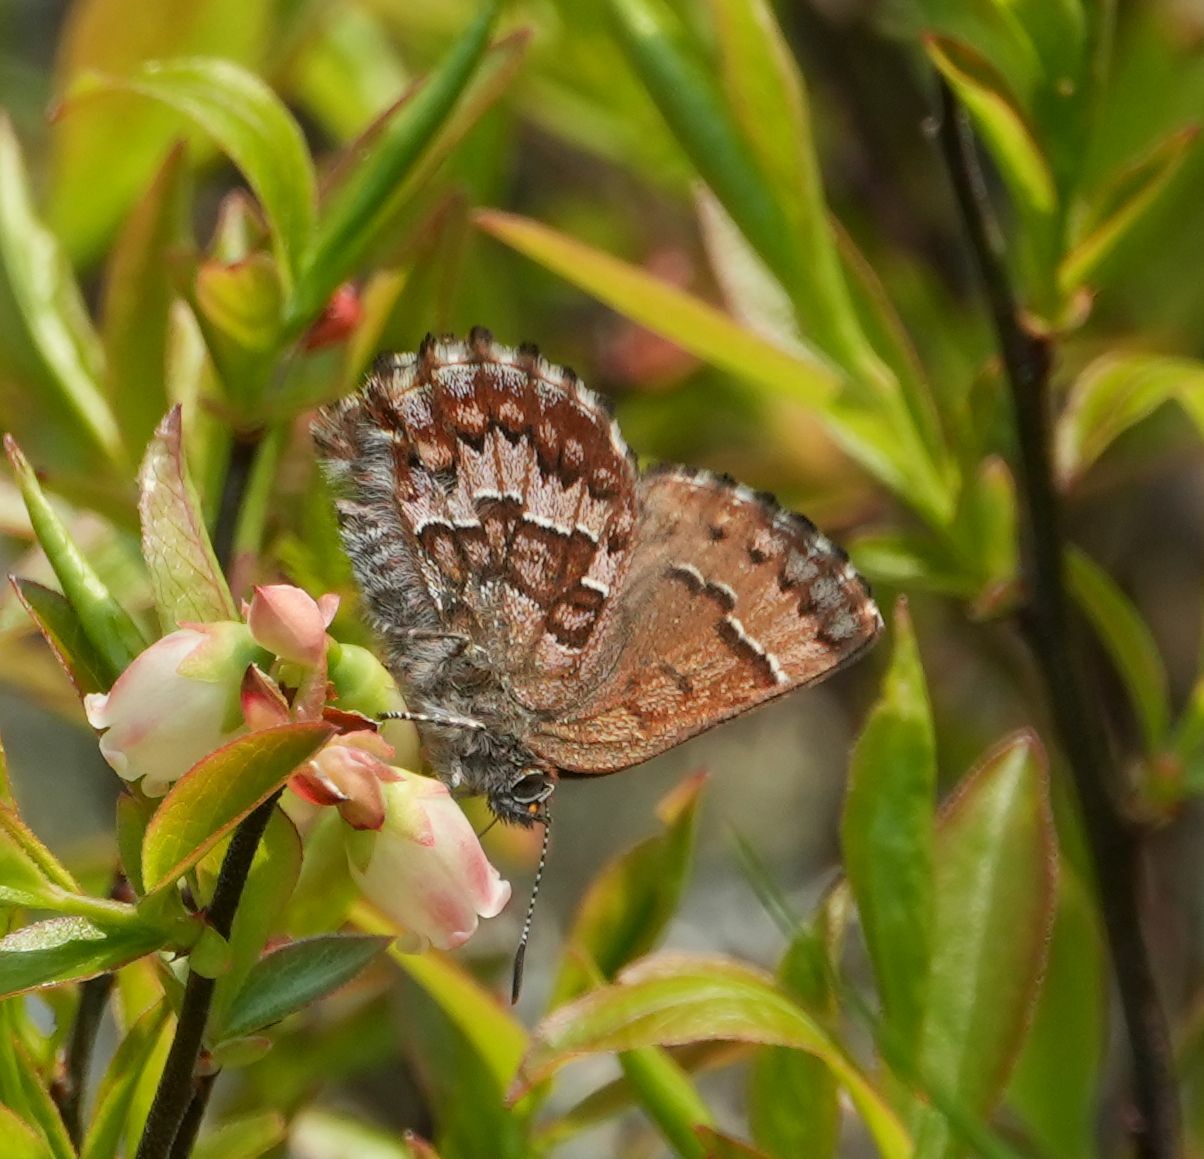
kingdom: Animalia
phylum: Arthropoda
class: Insecta
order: Lepidoptera
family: Lycaenidae
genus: Incisalia
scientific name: Incisalia niphon
